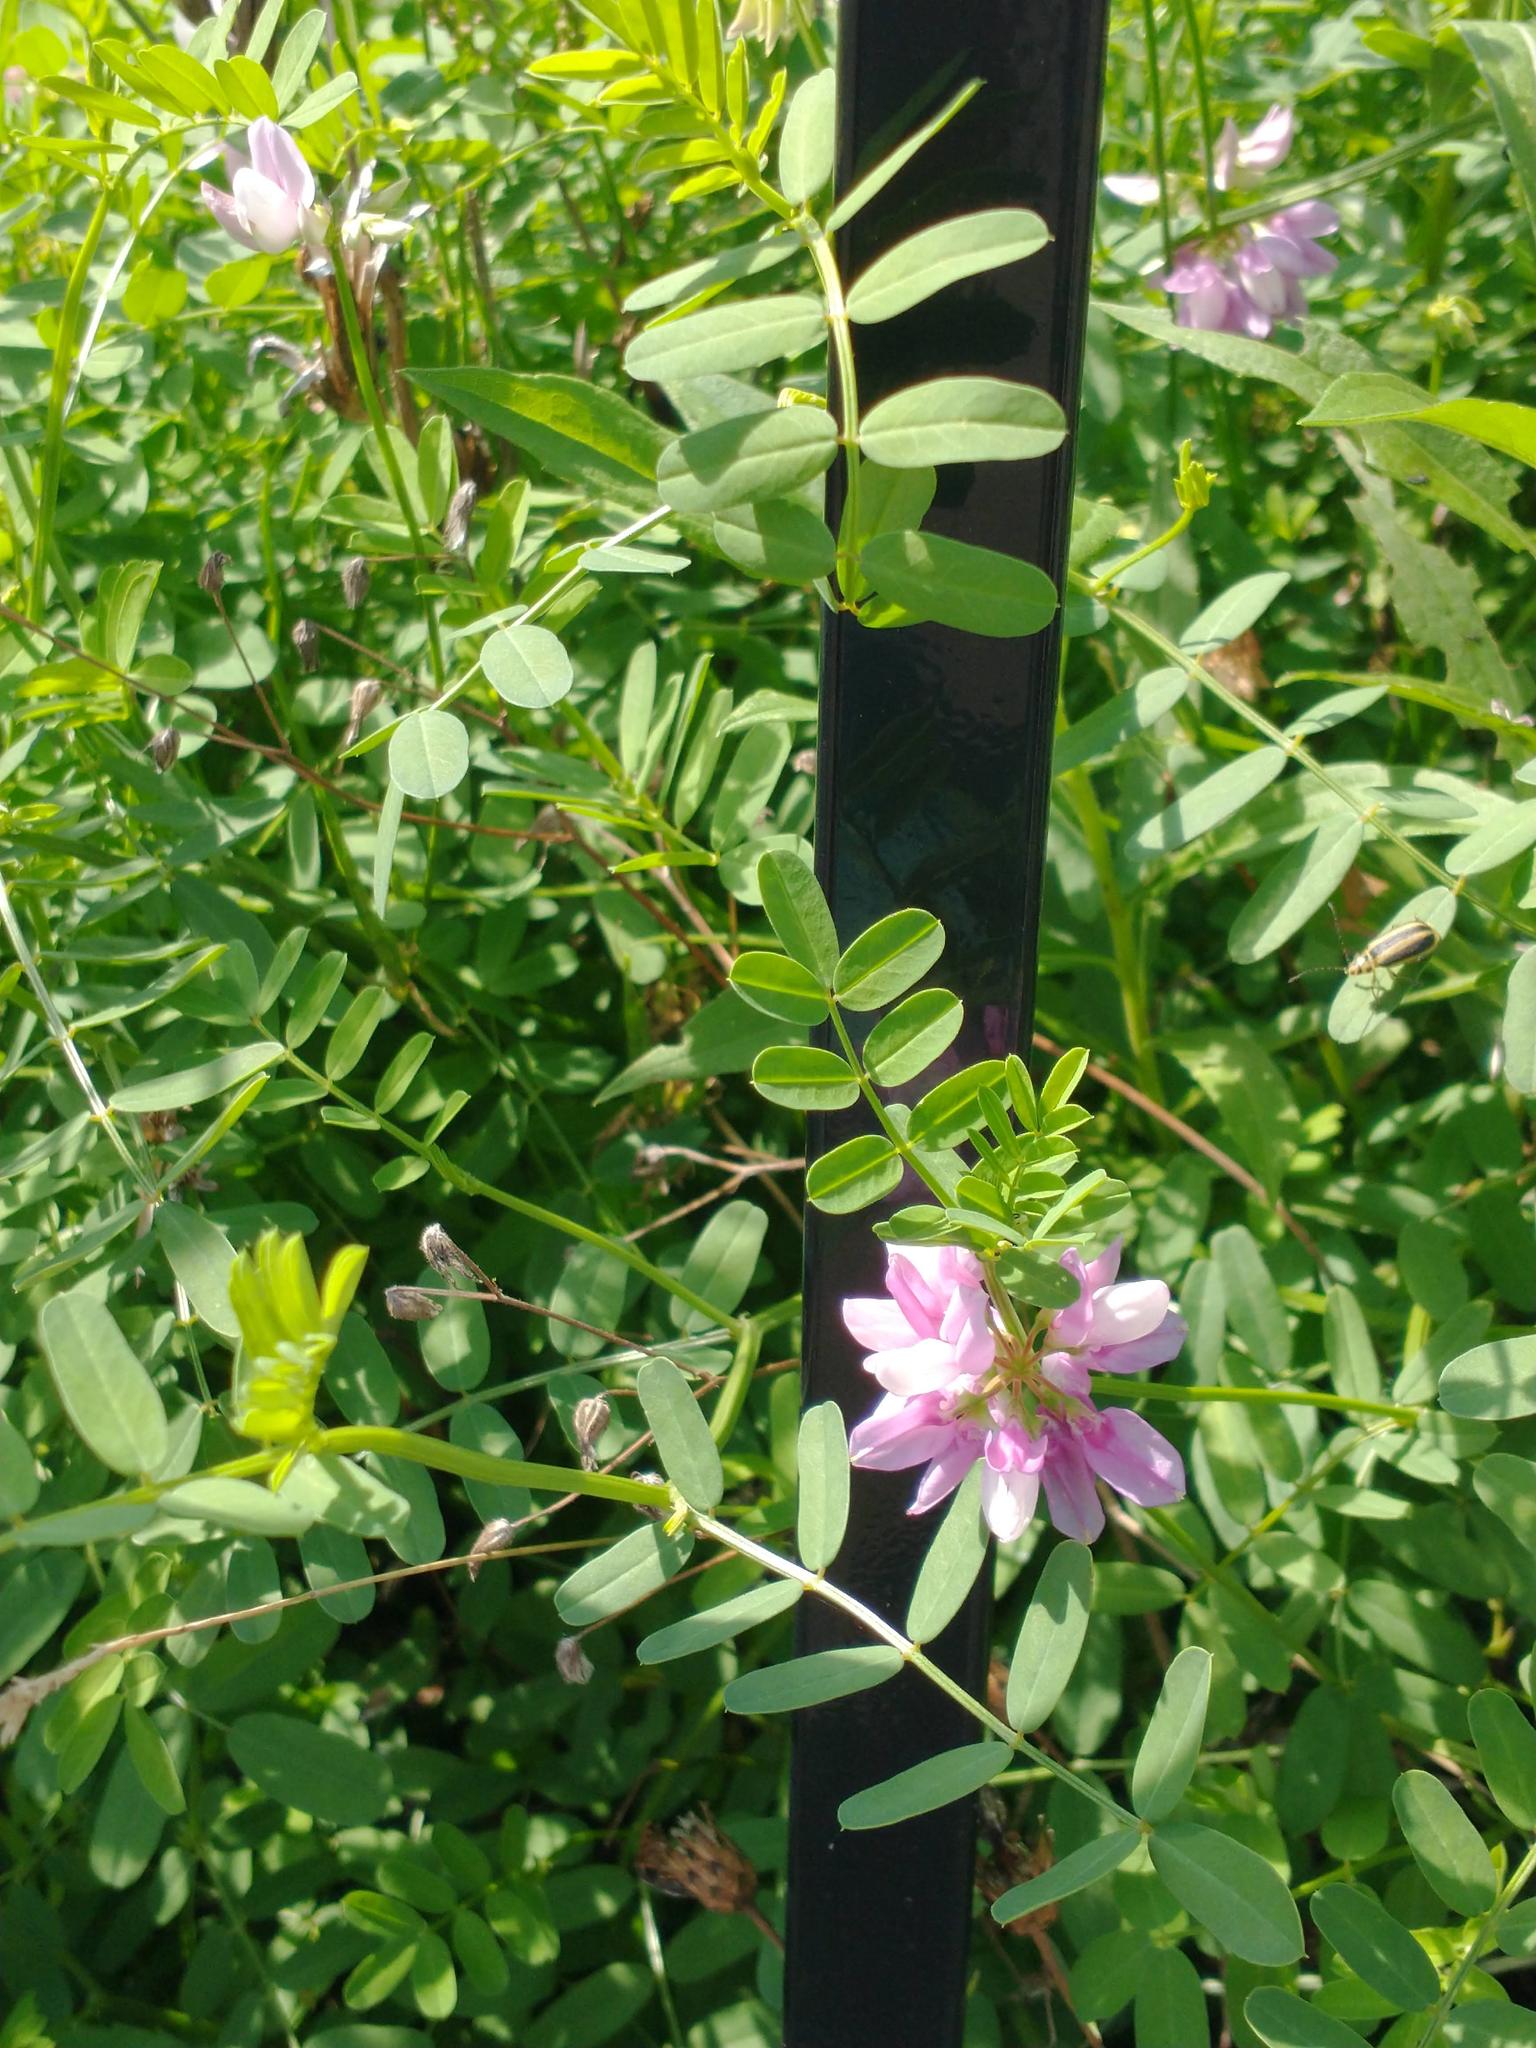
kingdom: Plantae
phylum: Tracheophyta
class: Magnoliopsida
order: Fabales
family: Fabaceae
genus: Coronilla
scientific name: Coronilla varia
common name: Crownvetch
